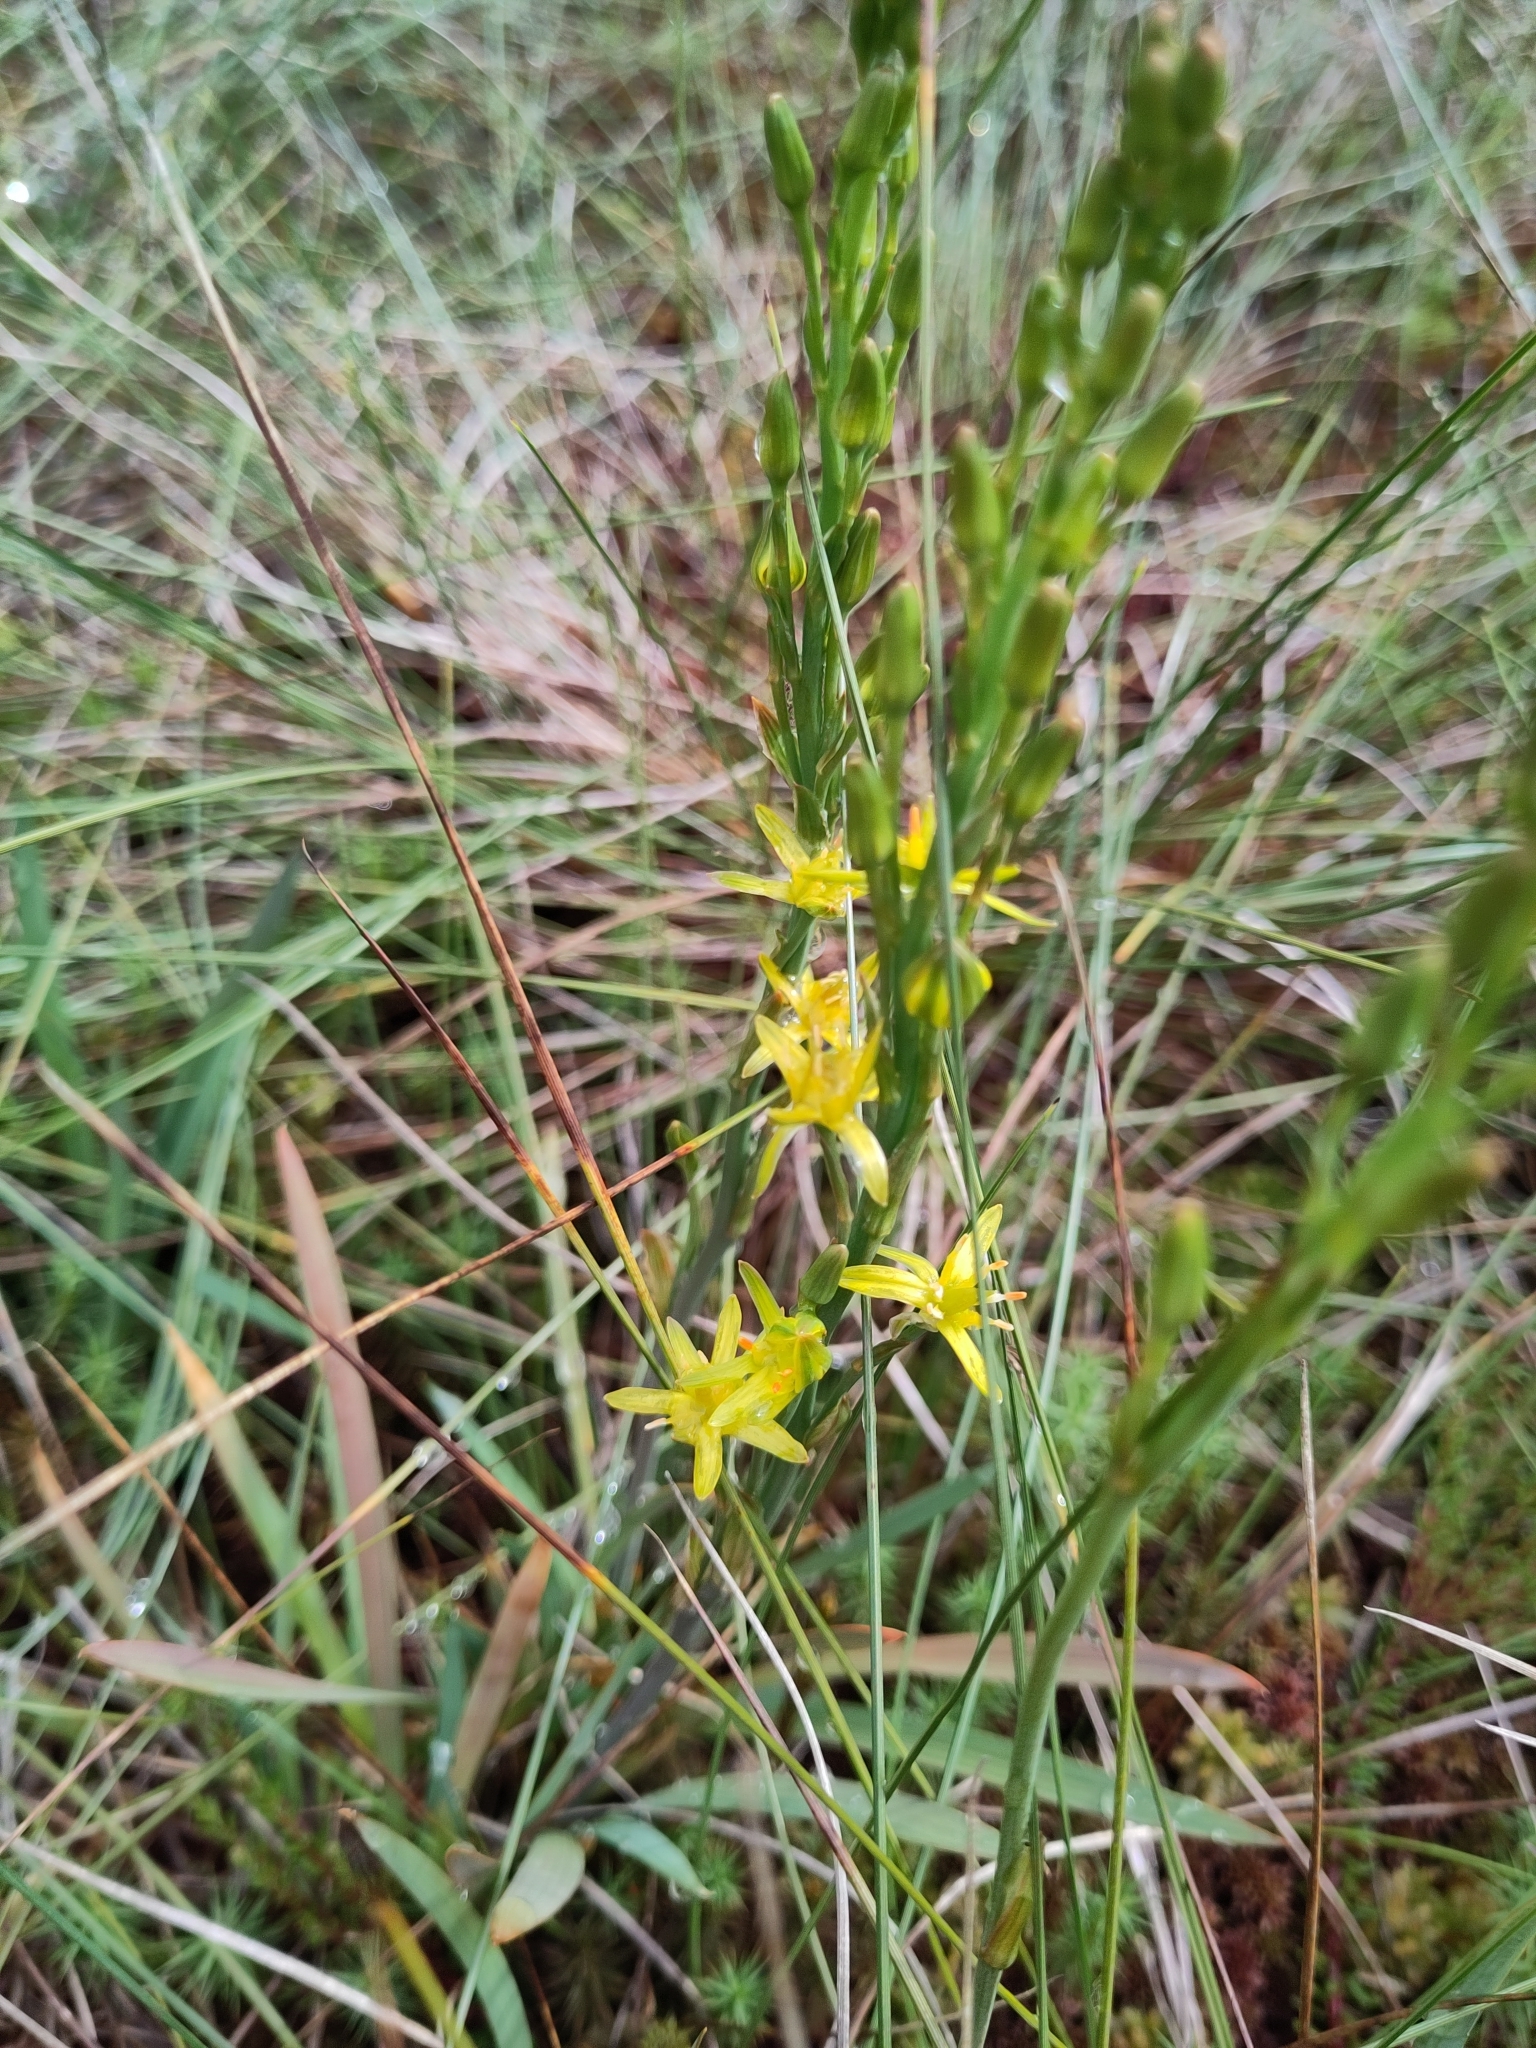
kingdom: Plantae
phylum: Tracheophyta
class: Liliopsida
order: Dioscoreales
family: Nartheciaceae
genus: Narthecium
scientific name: Narthecium ossifragum
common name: Bog asphodel
